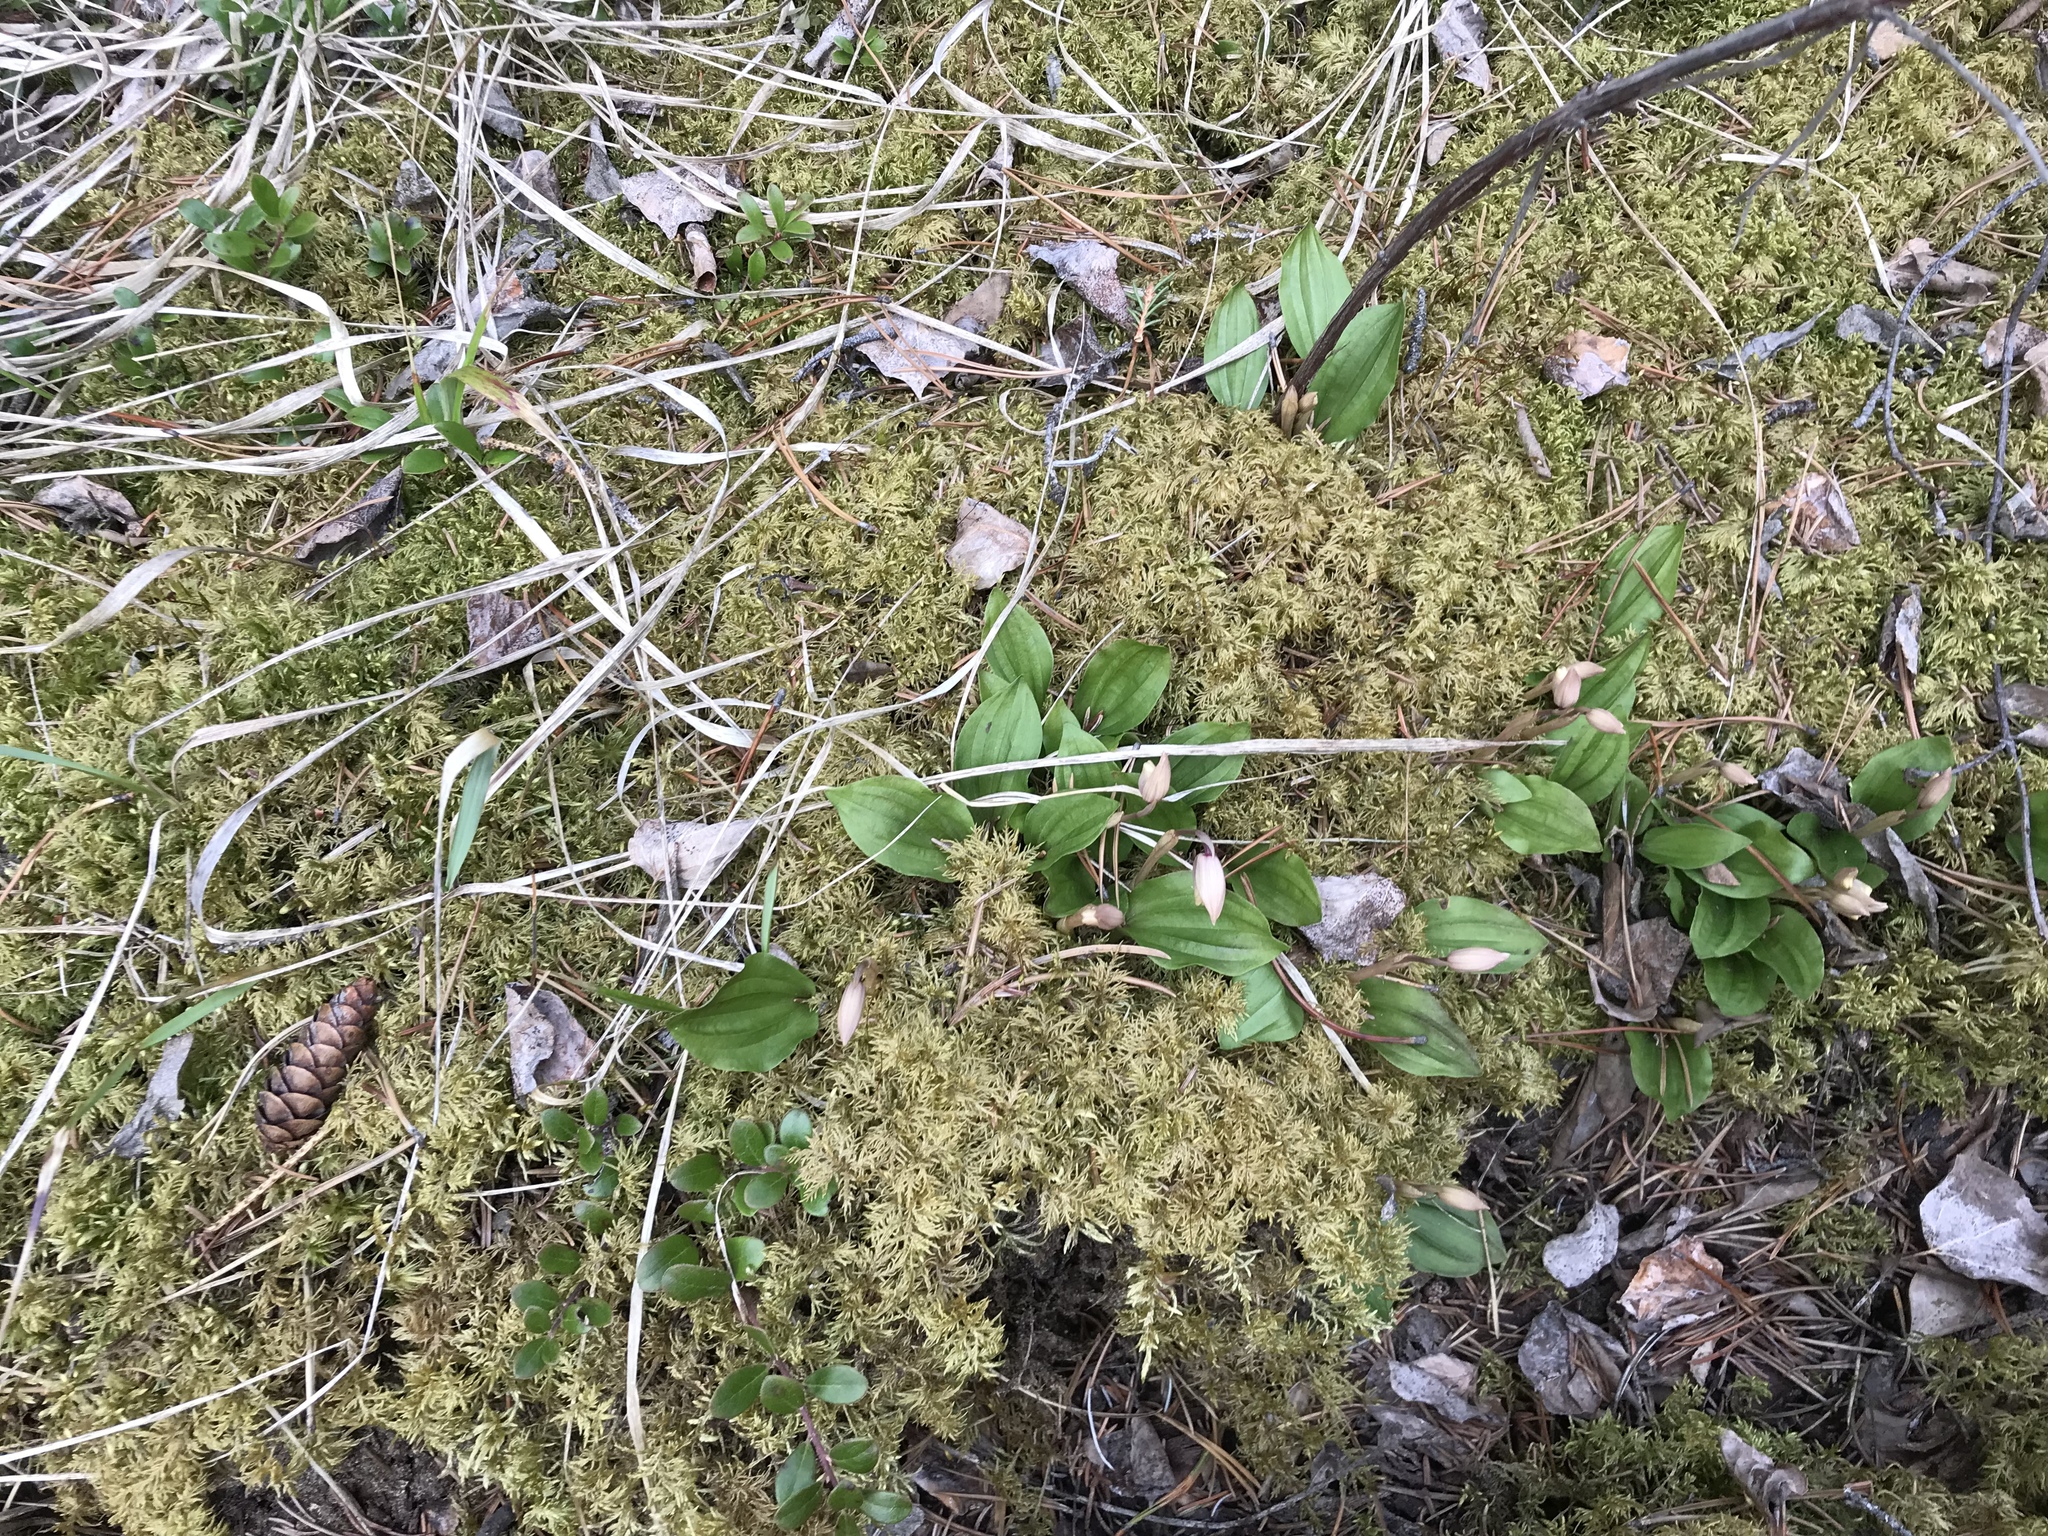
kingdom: Plantae
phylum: Tracheophyta
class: Liliopsida
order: Asparagales
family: Orchidaceae
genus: Calypso
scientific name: Calypso bulbosa
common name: Calypso
